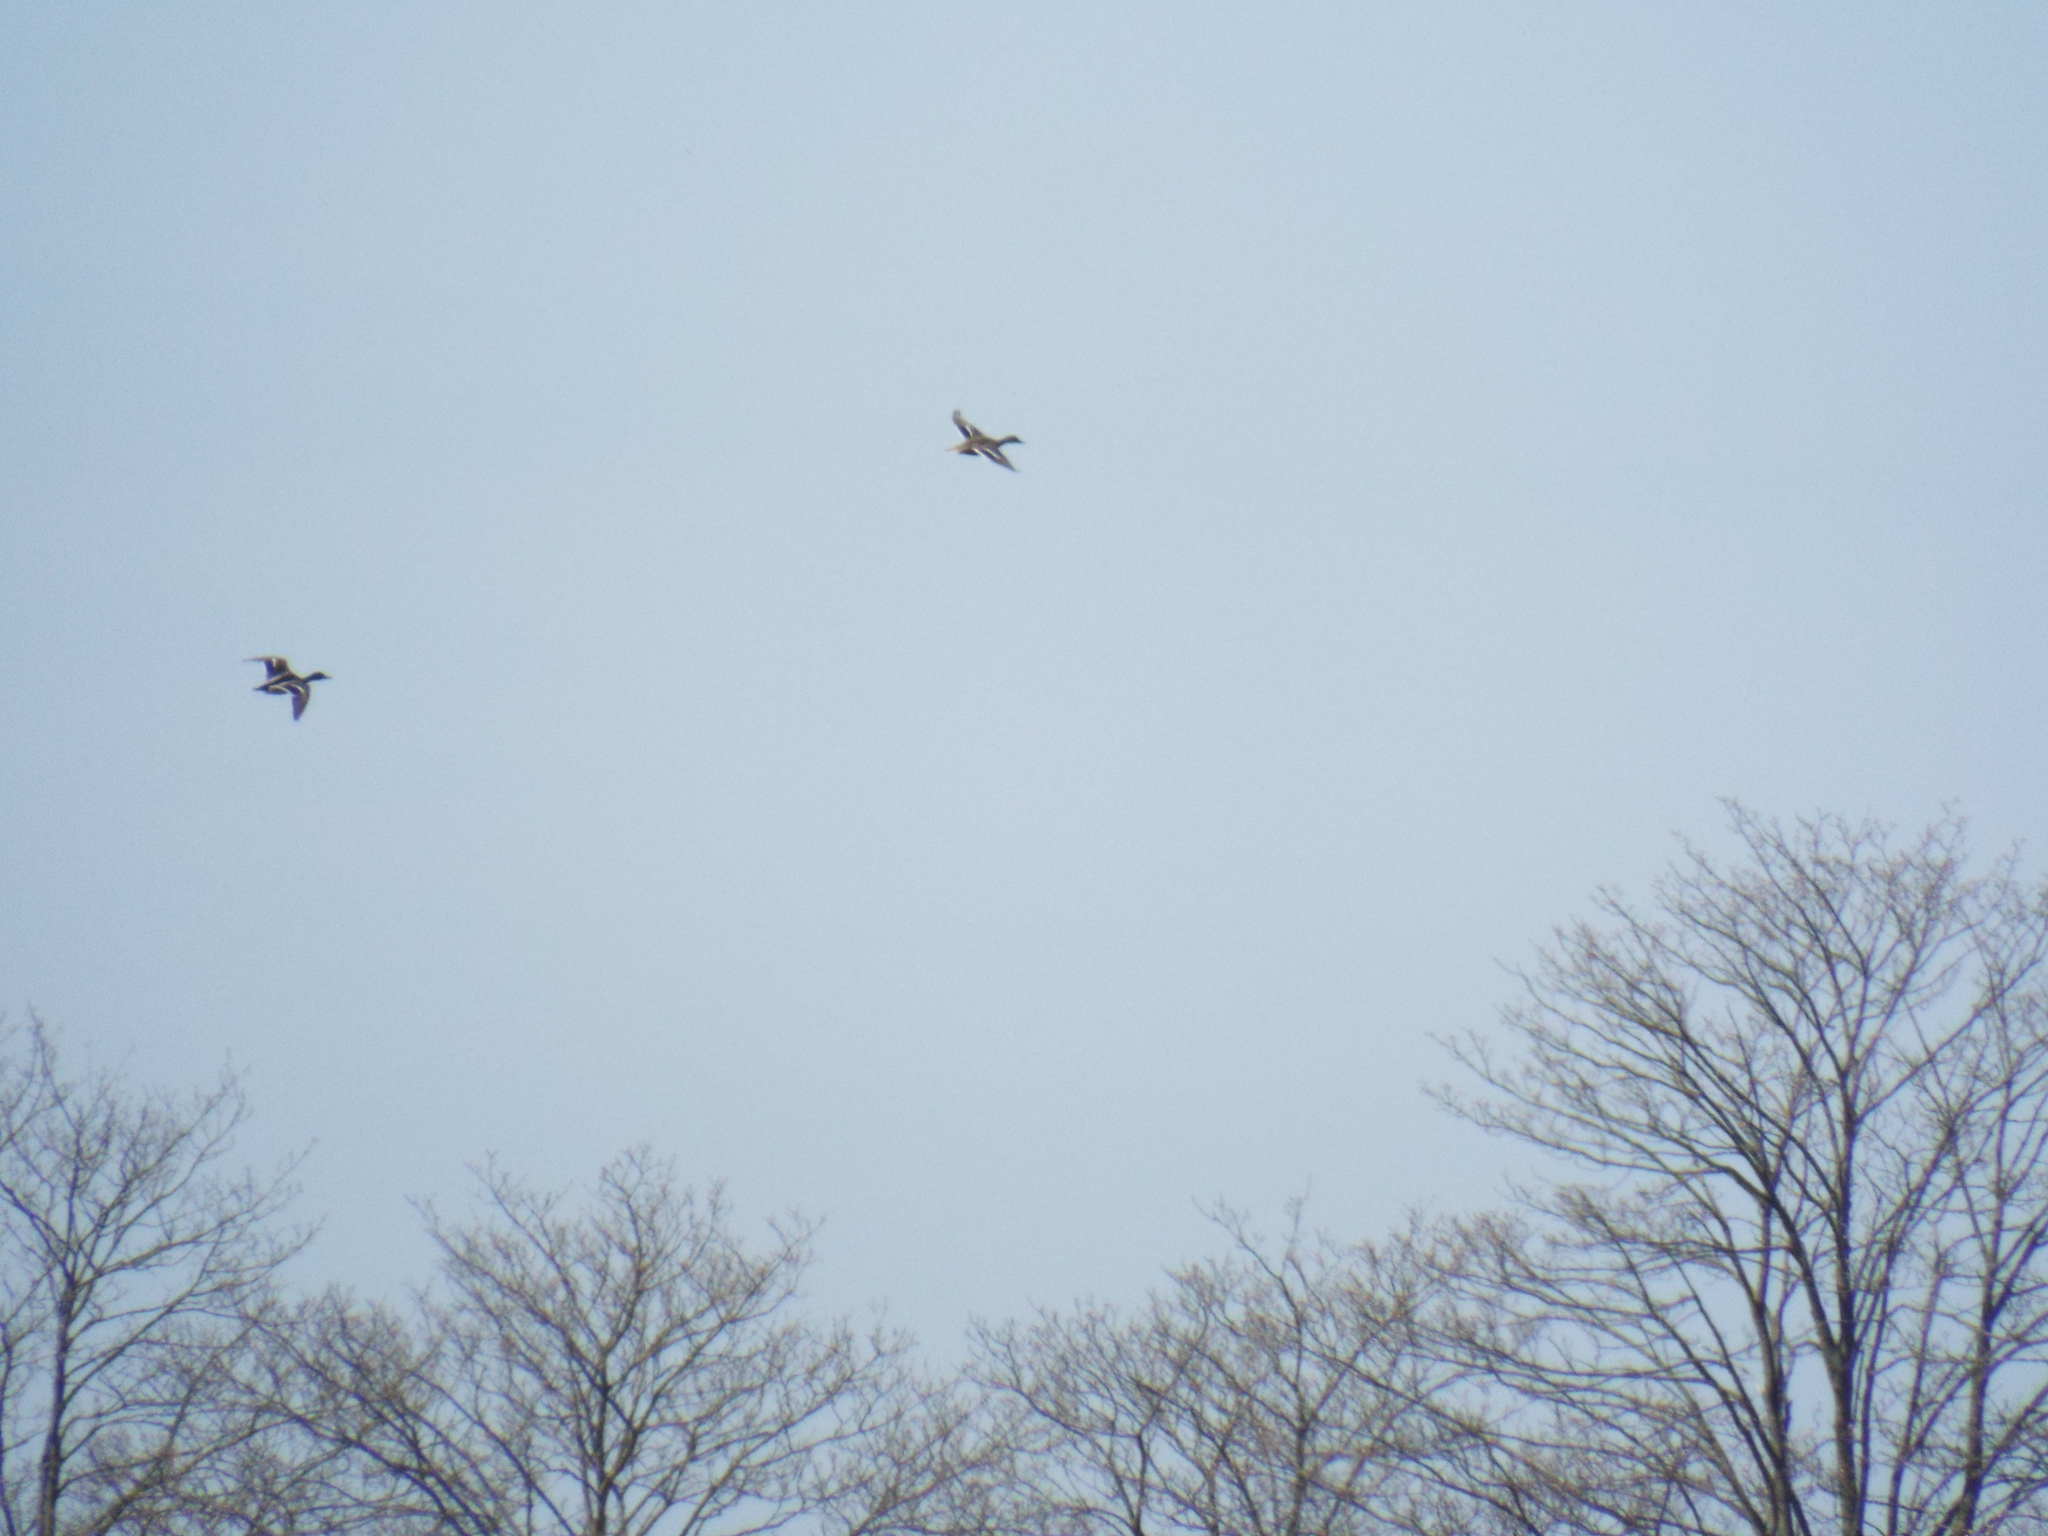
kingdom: Animalia
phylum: Chordata
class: Aves
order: Anseriformes
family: Anatidae
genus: Anas
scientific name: Anas platyrhynchos
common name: Mallard
